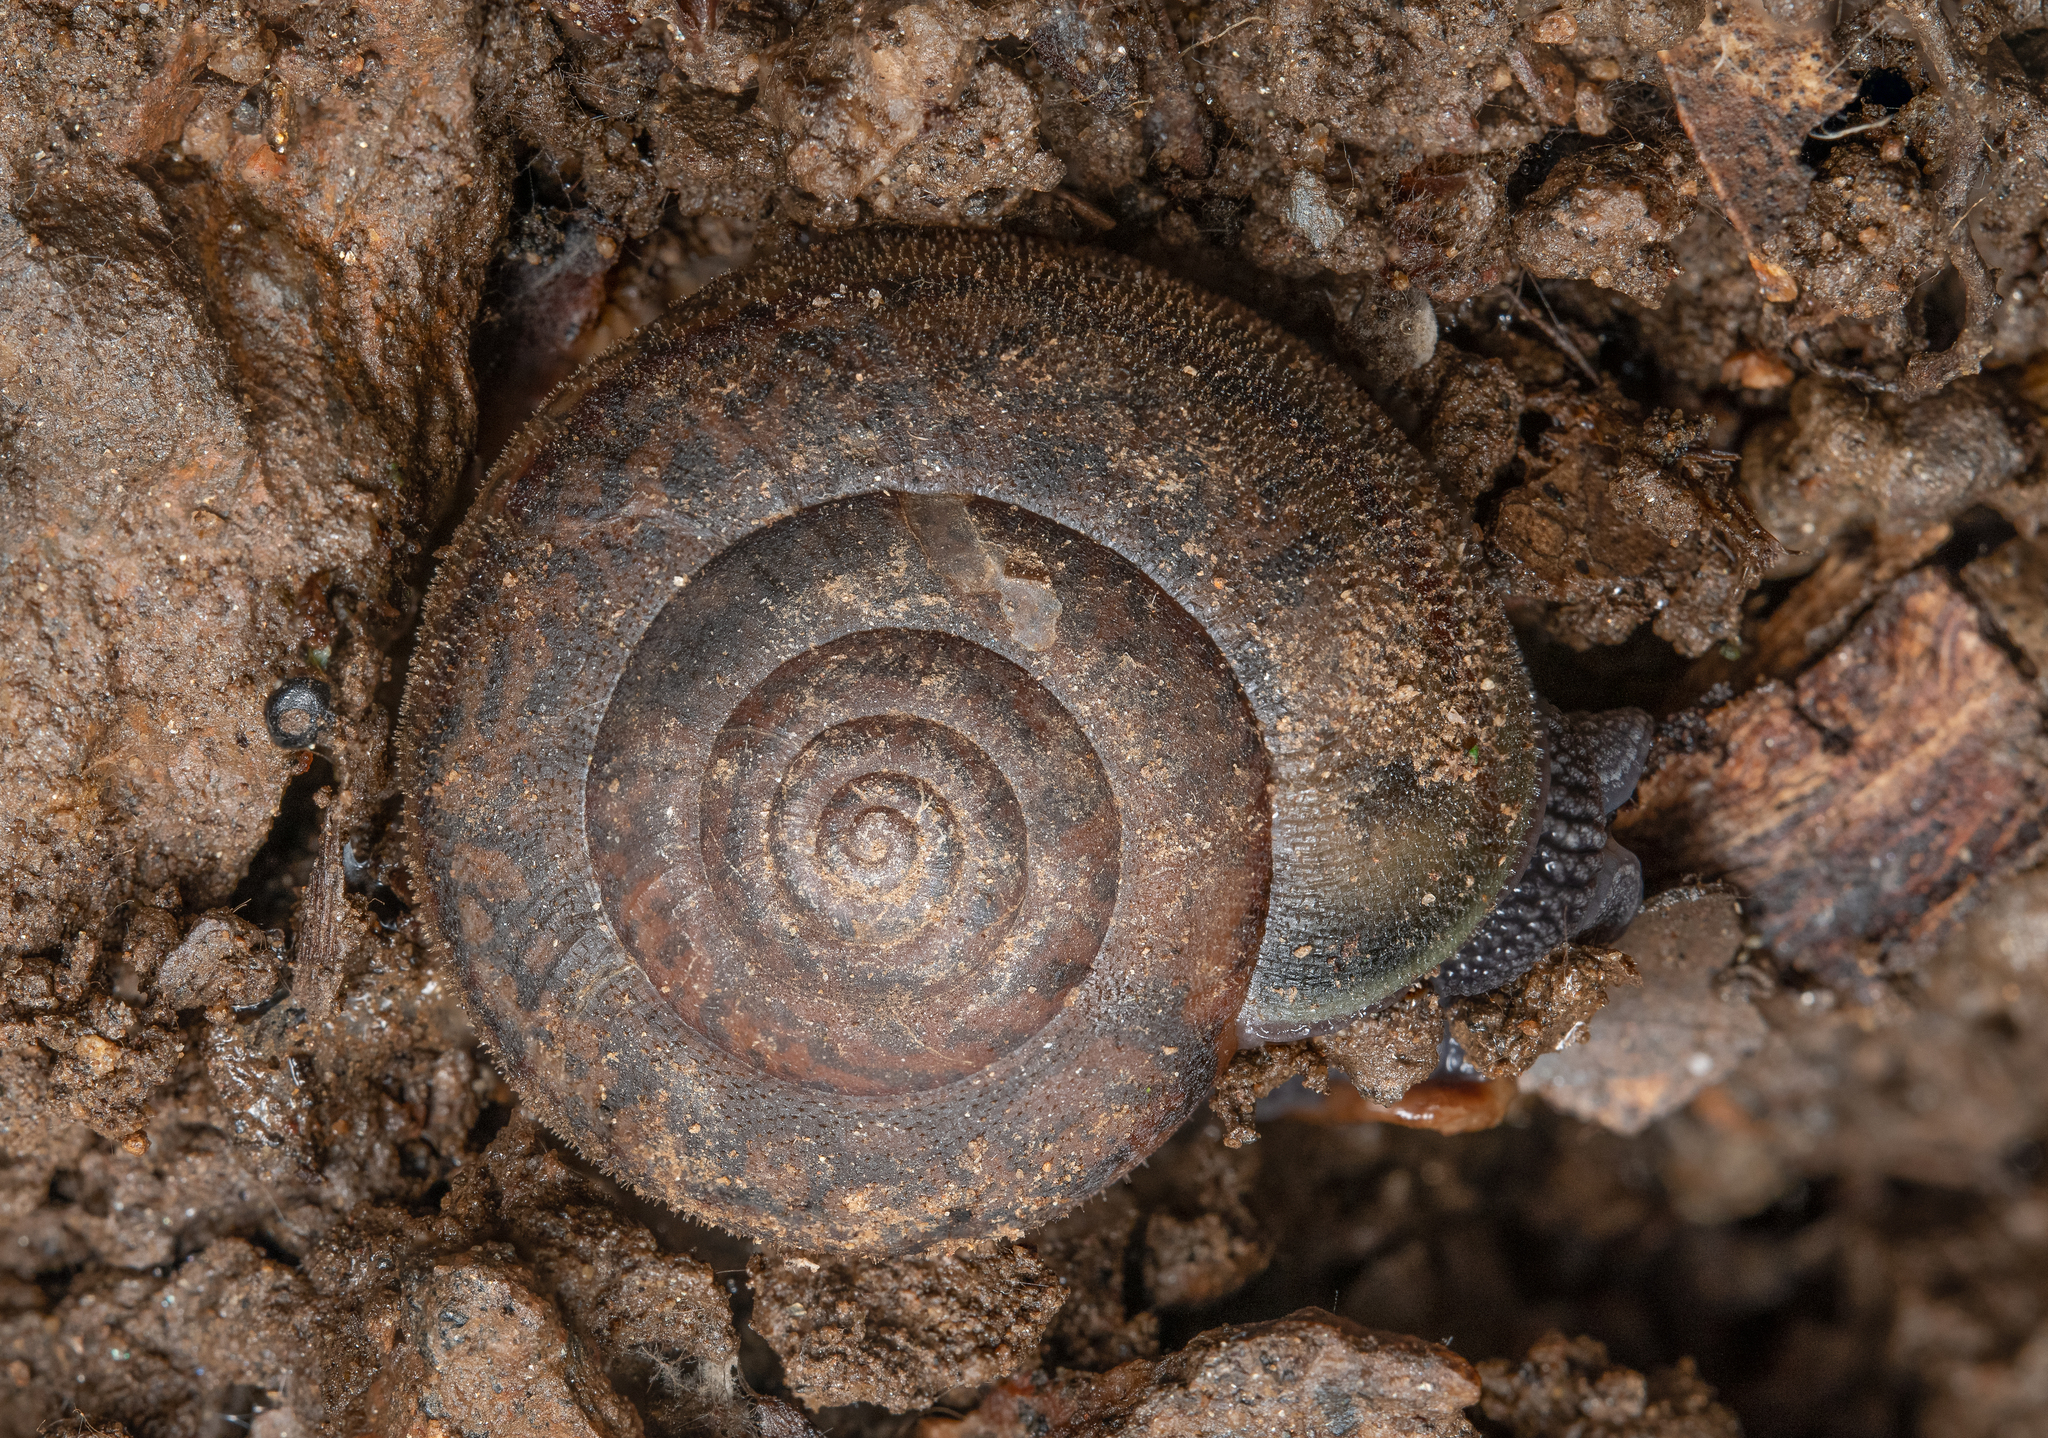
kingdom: Animalia
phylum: Mollusca
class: Gastropoda
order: Stylommatophora
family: Xanthonychidae
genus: Rothelix
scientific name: Rothelix lowei
